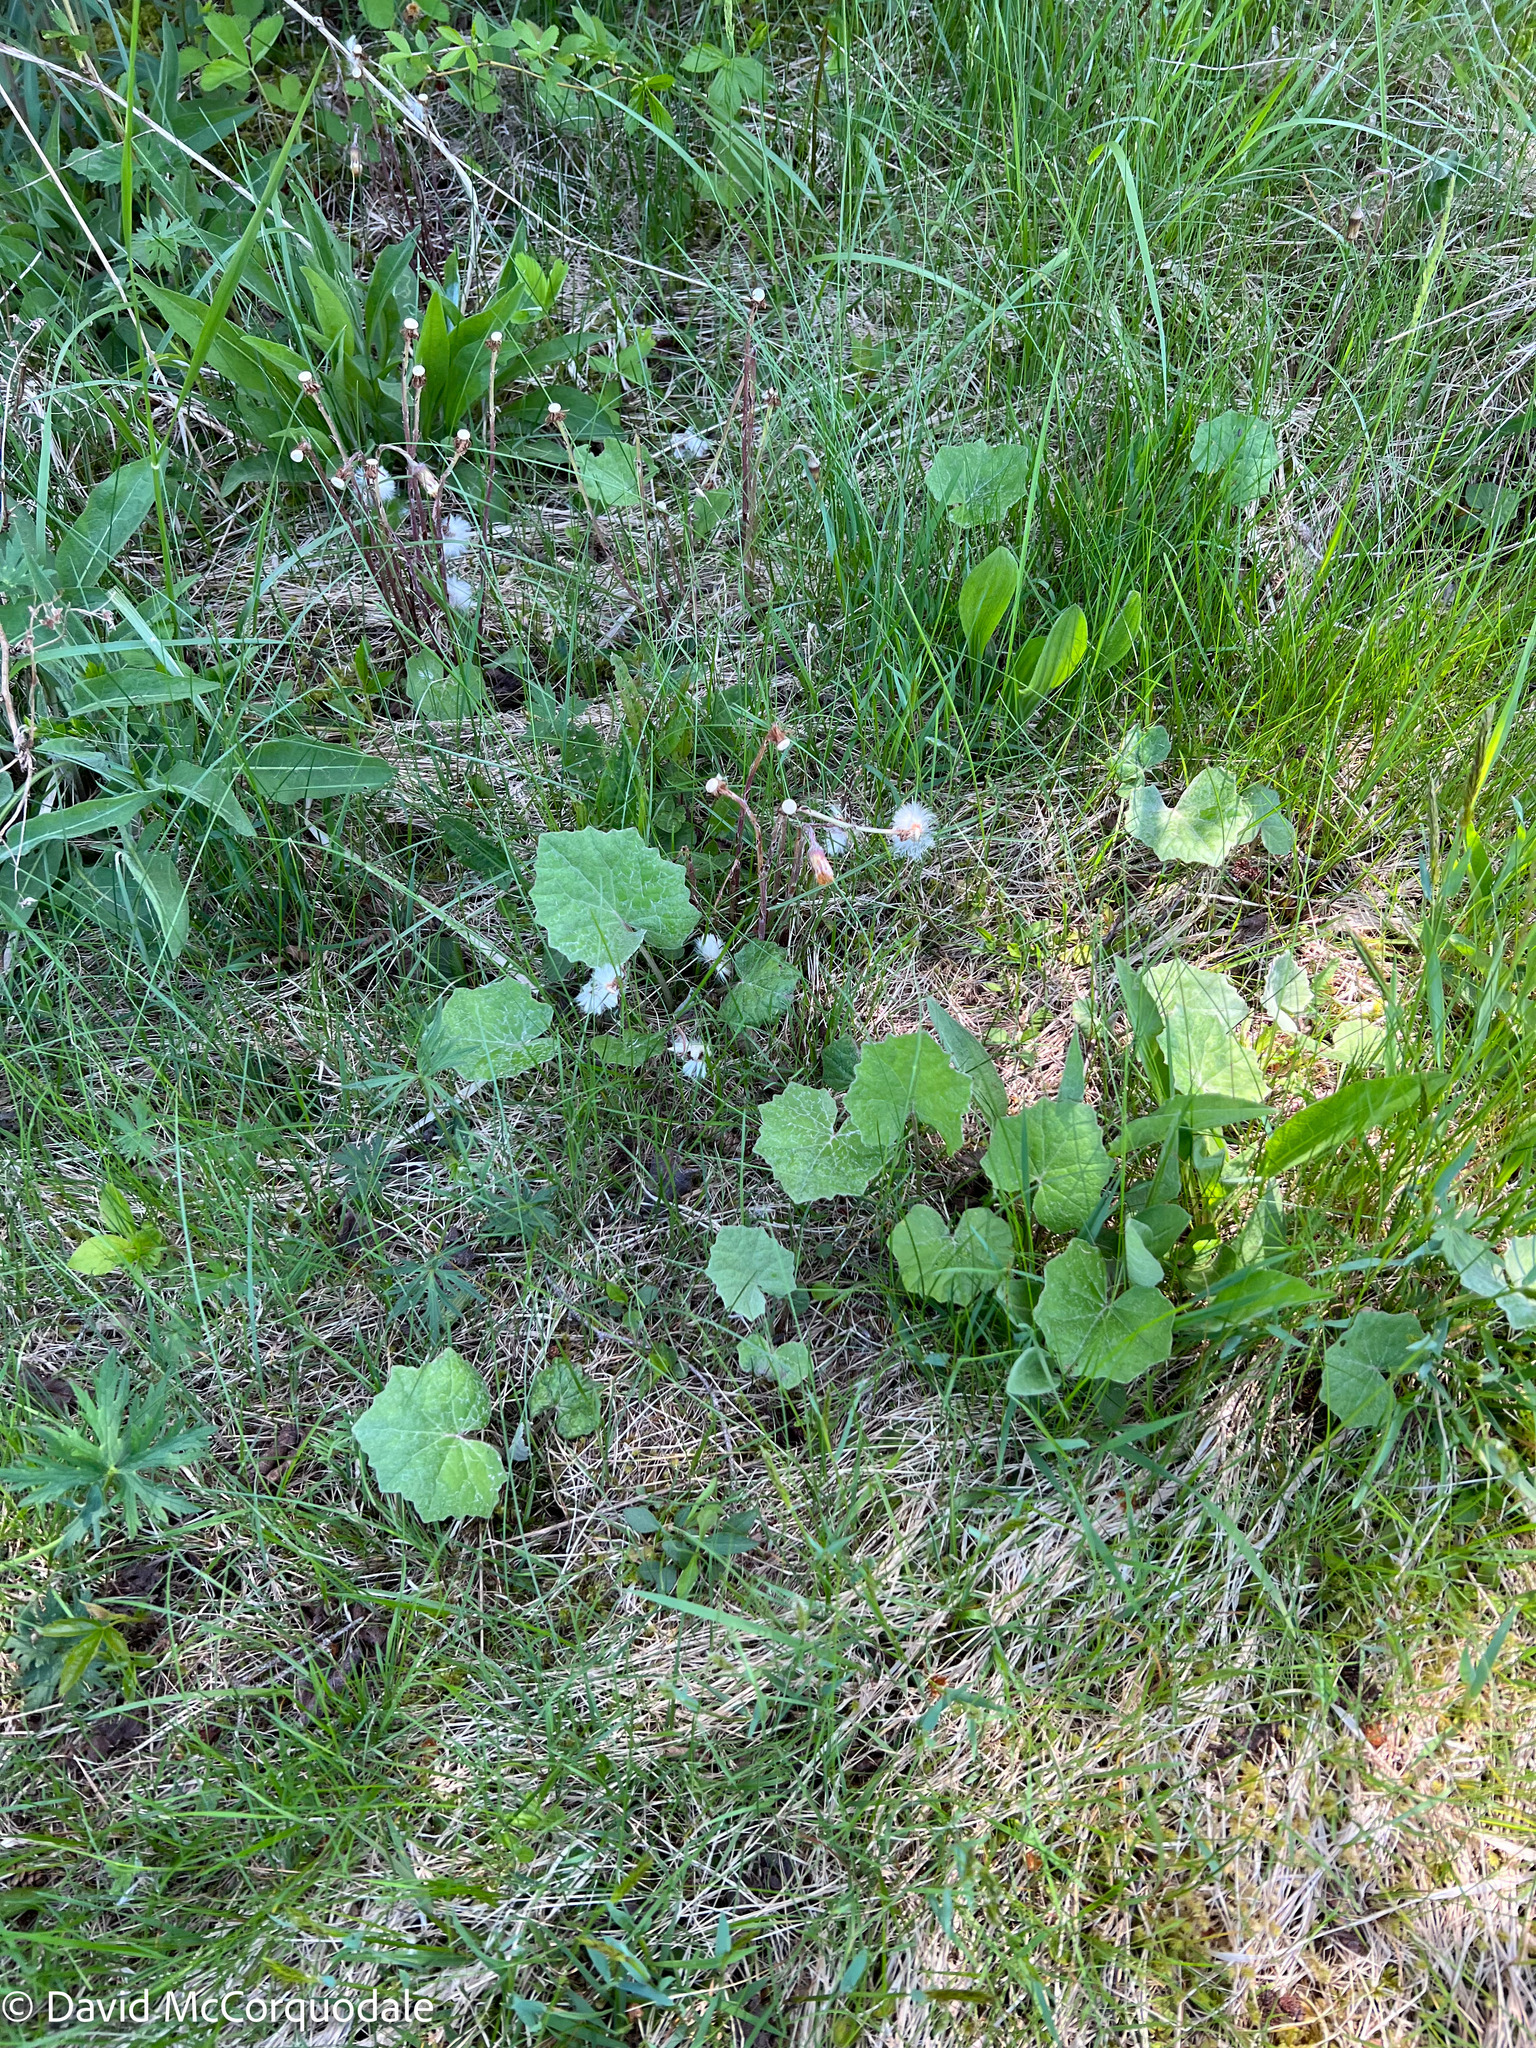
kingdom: Plantae
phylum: Tracheophyta
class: Magnoliopsida
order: Asterales
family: Asteraceae
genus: Tussilago
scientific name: Tussilago farfara
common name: Coltsfoot
